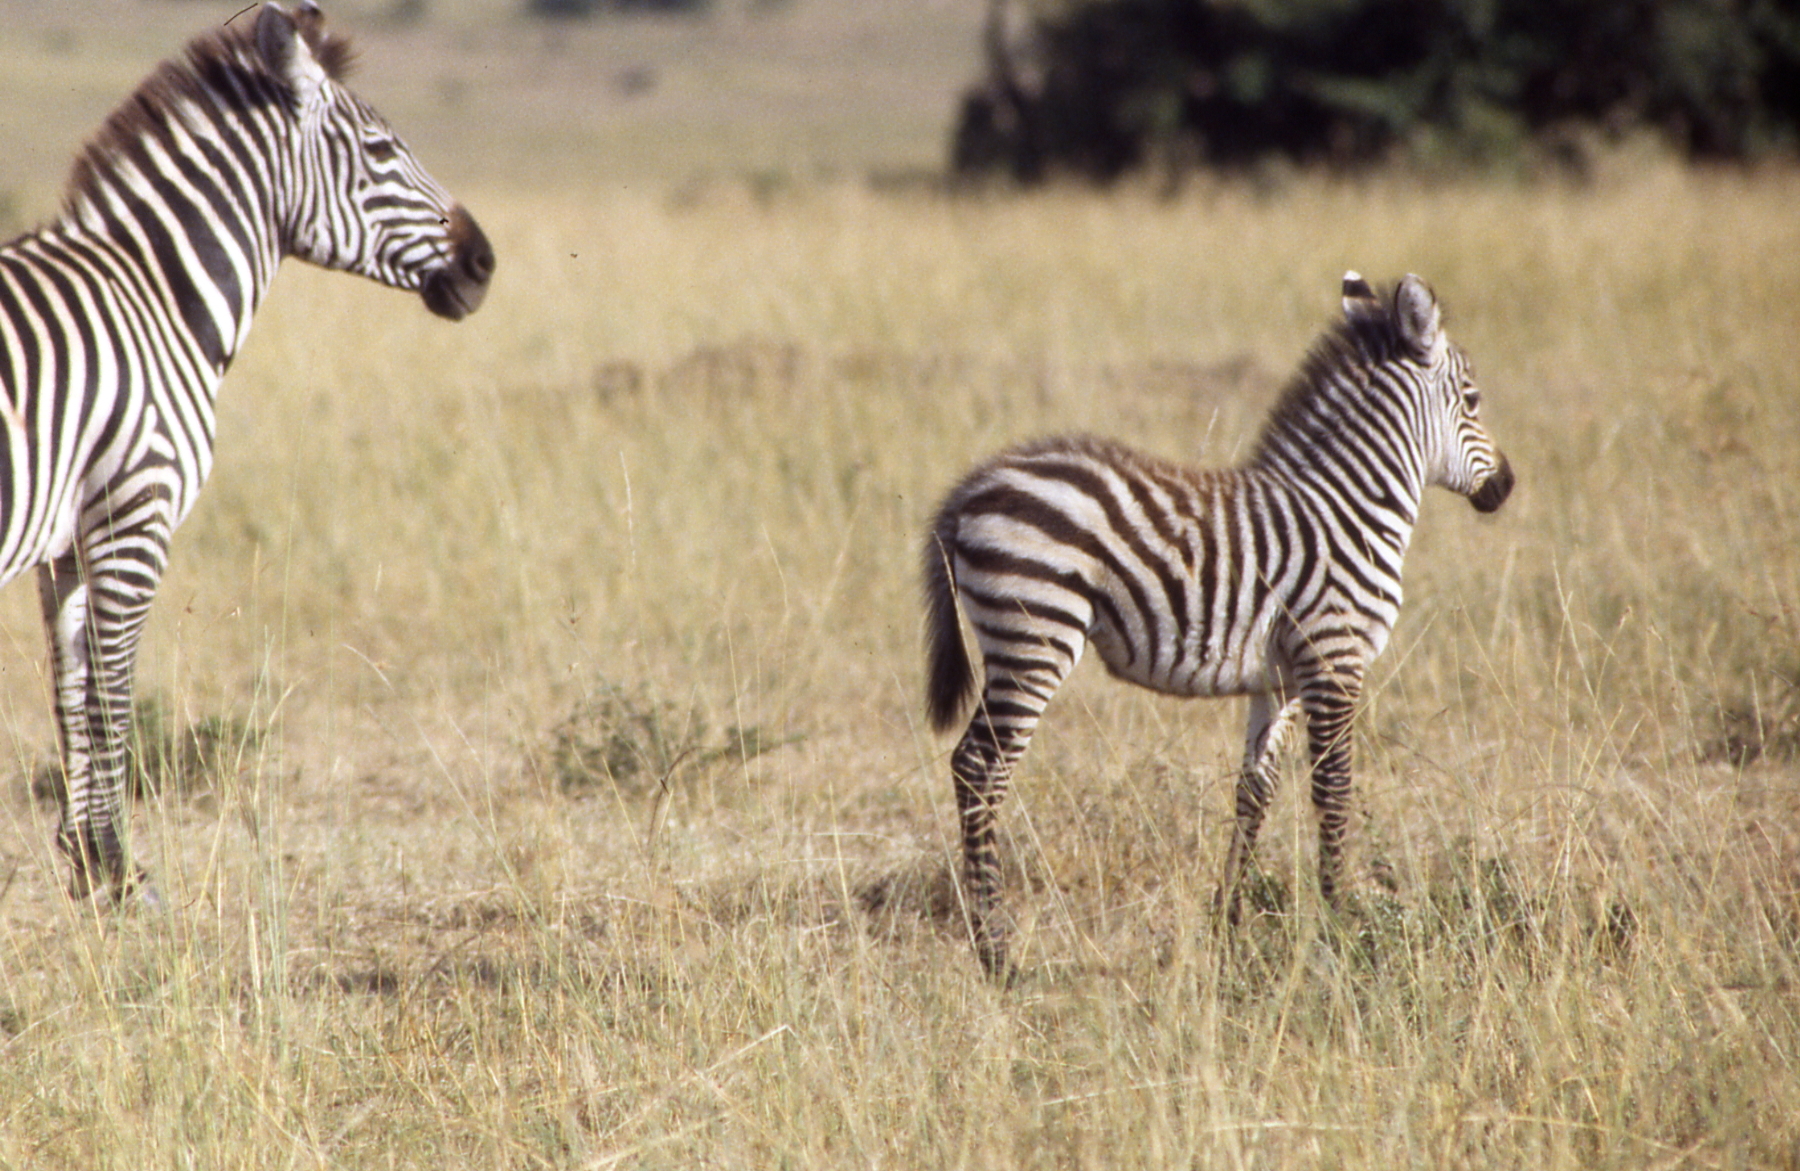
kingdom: Animalia
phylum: Chordata
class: Mammalia
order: Perissodactyla
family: Equidae
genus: Equus
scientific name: Equus quagga
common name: Plains zebra
